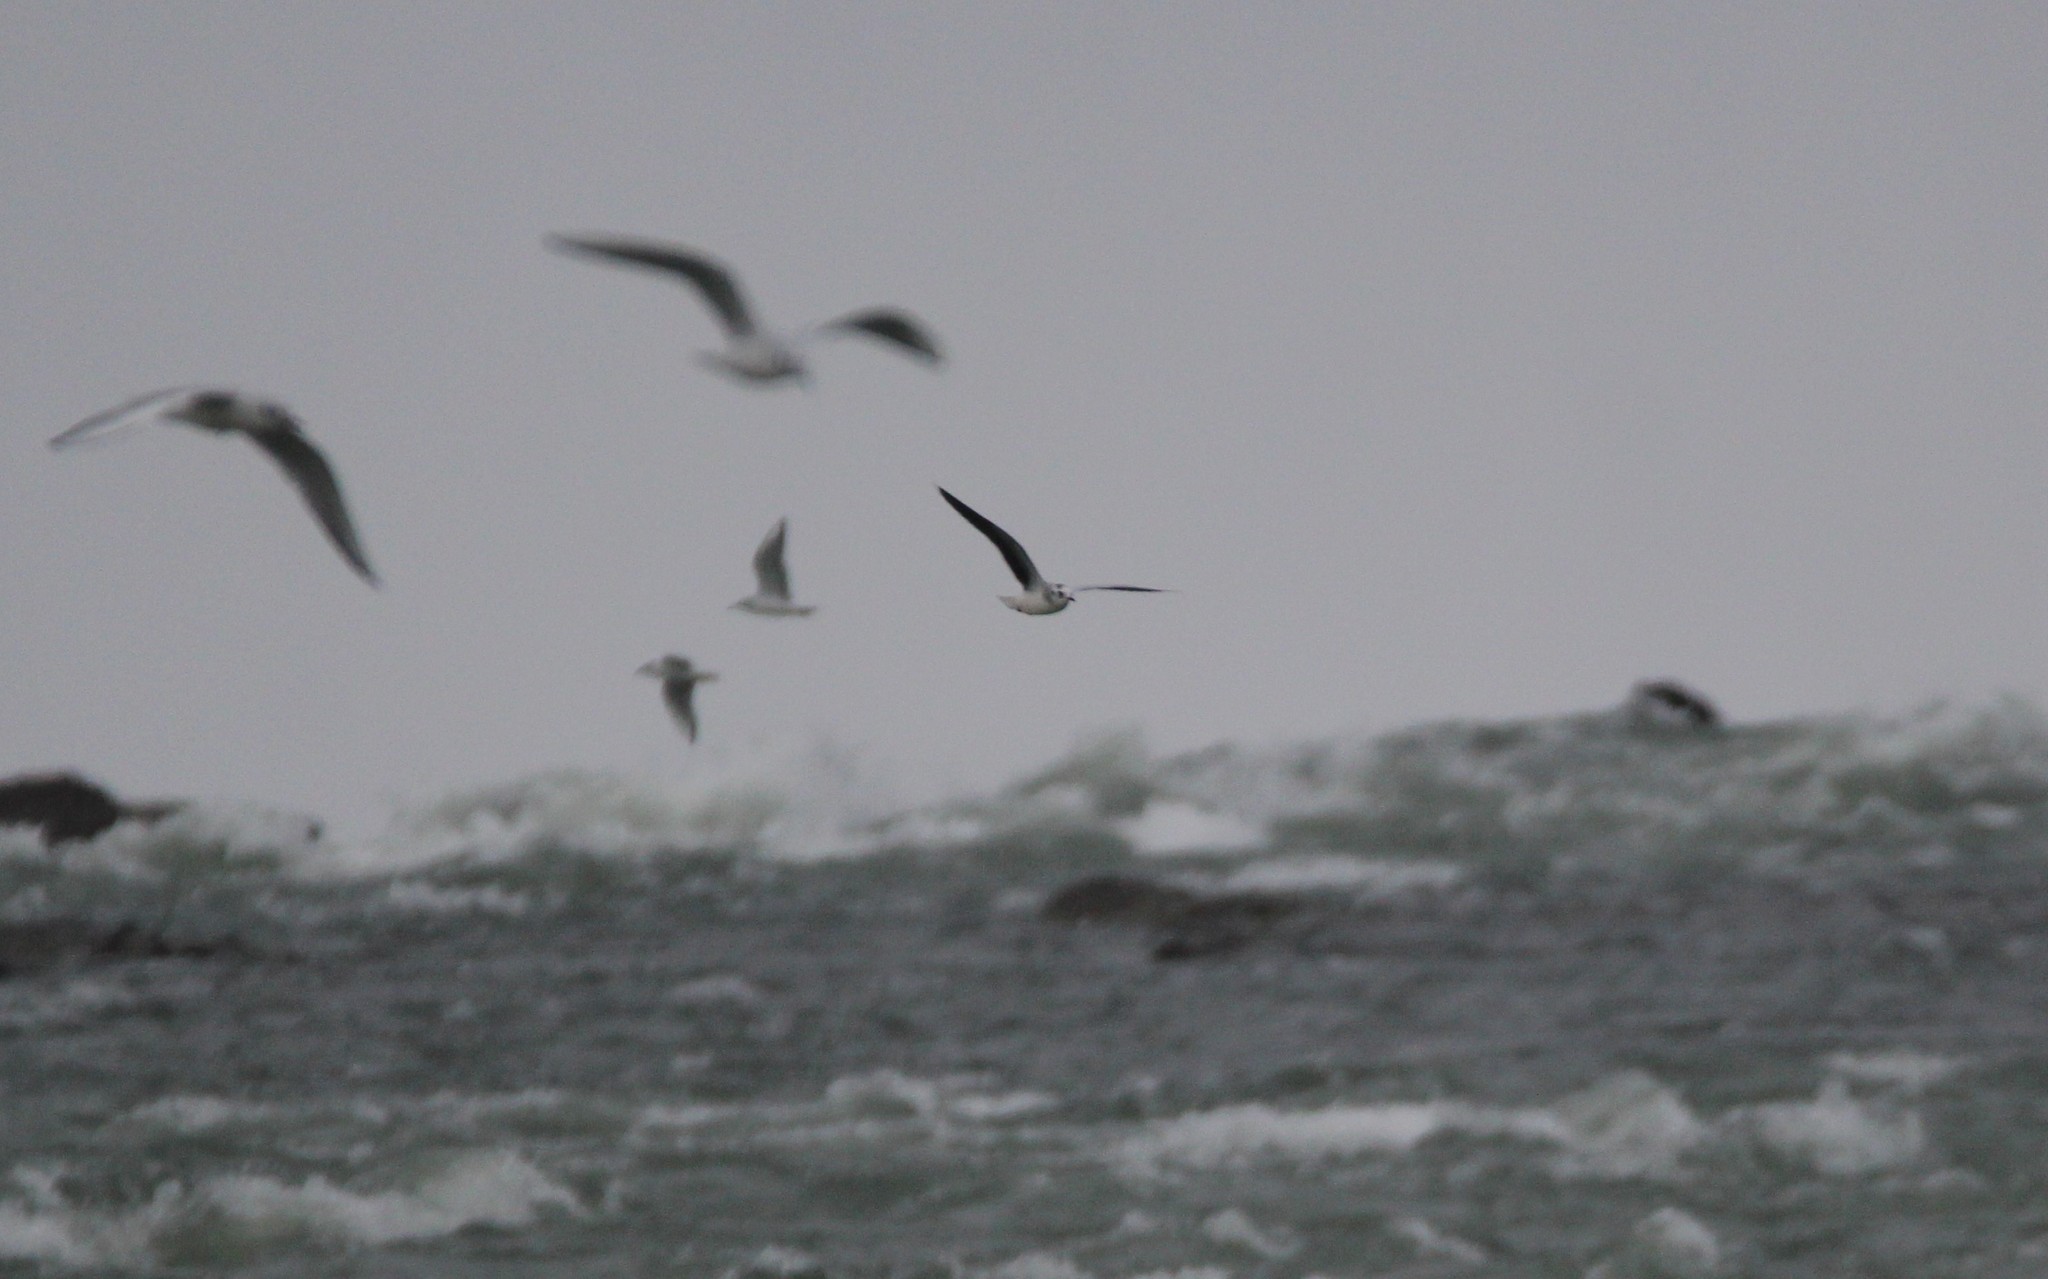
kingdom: Animalia
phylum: Chordata
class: Aves
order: Charadriiformes
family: Laridae
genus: Hydrocoloeus
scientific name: Hydrocoloeus minutus
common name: Little gull
